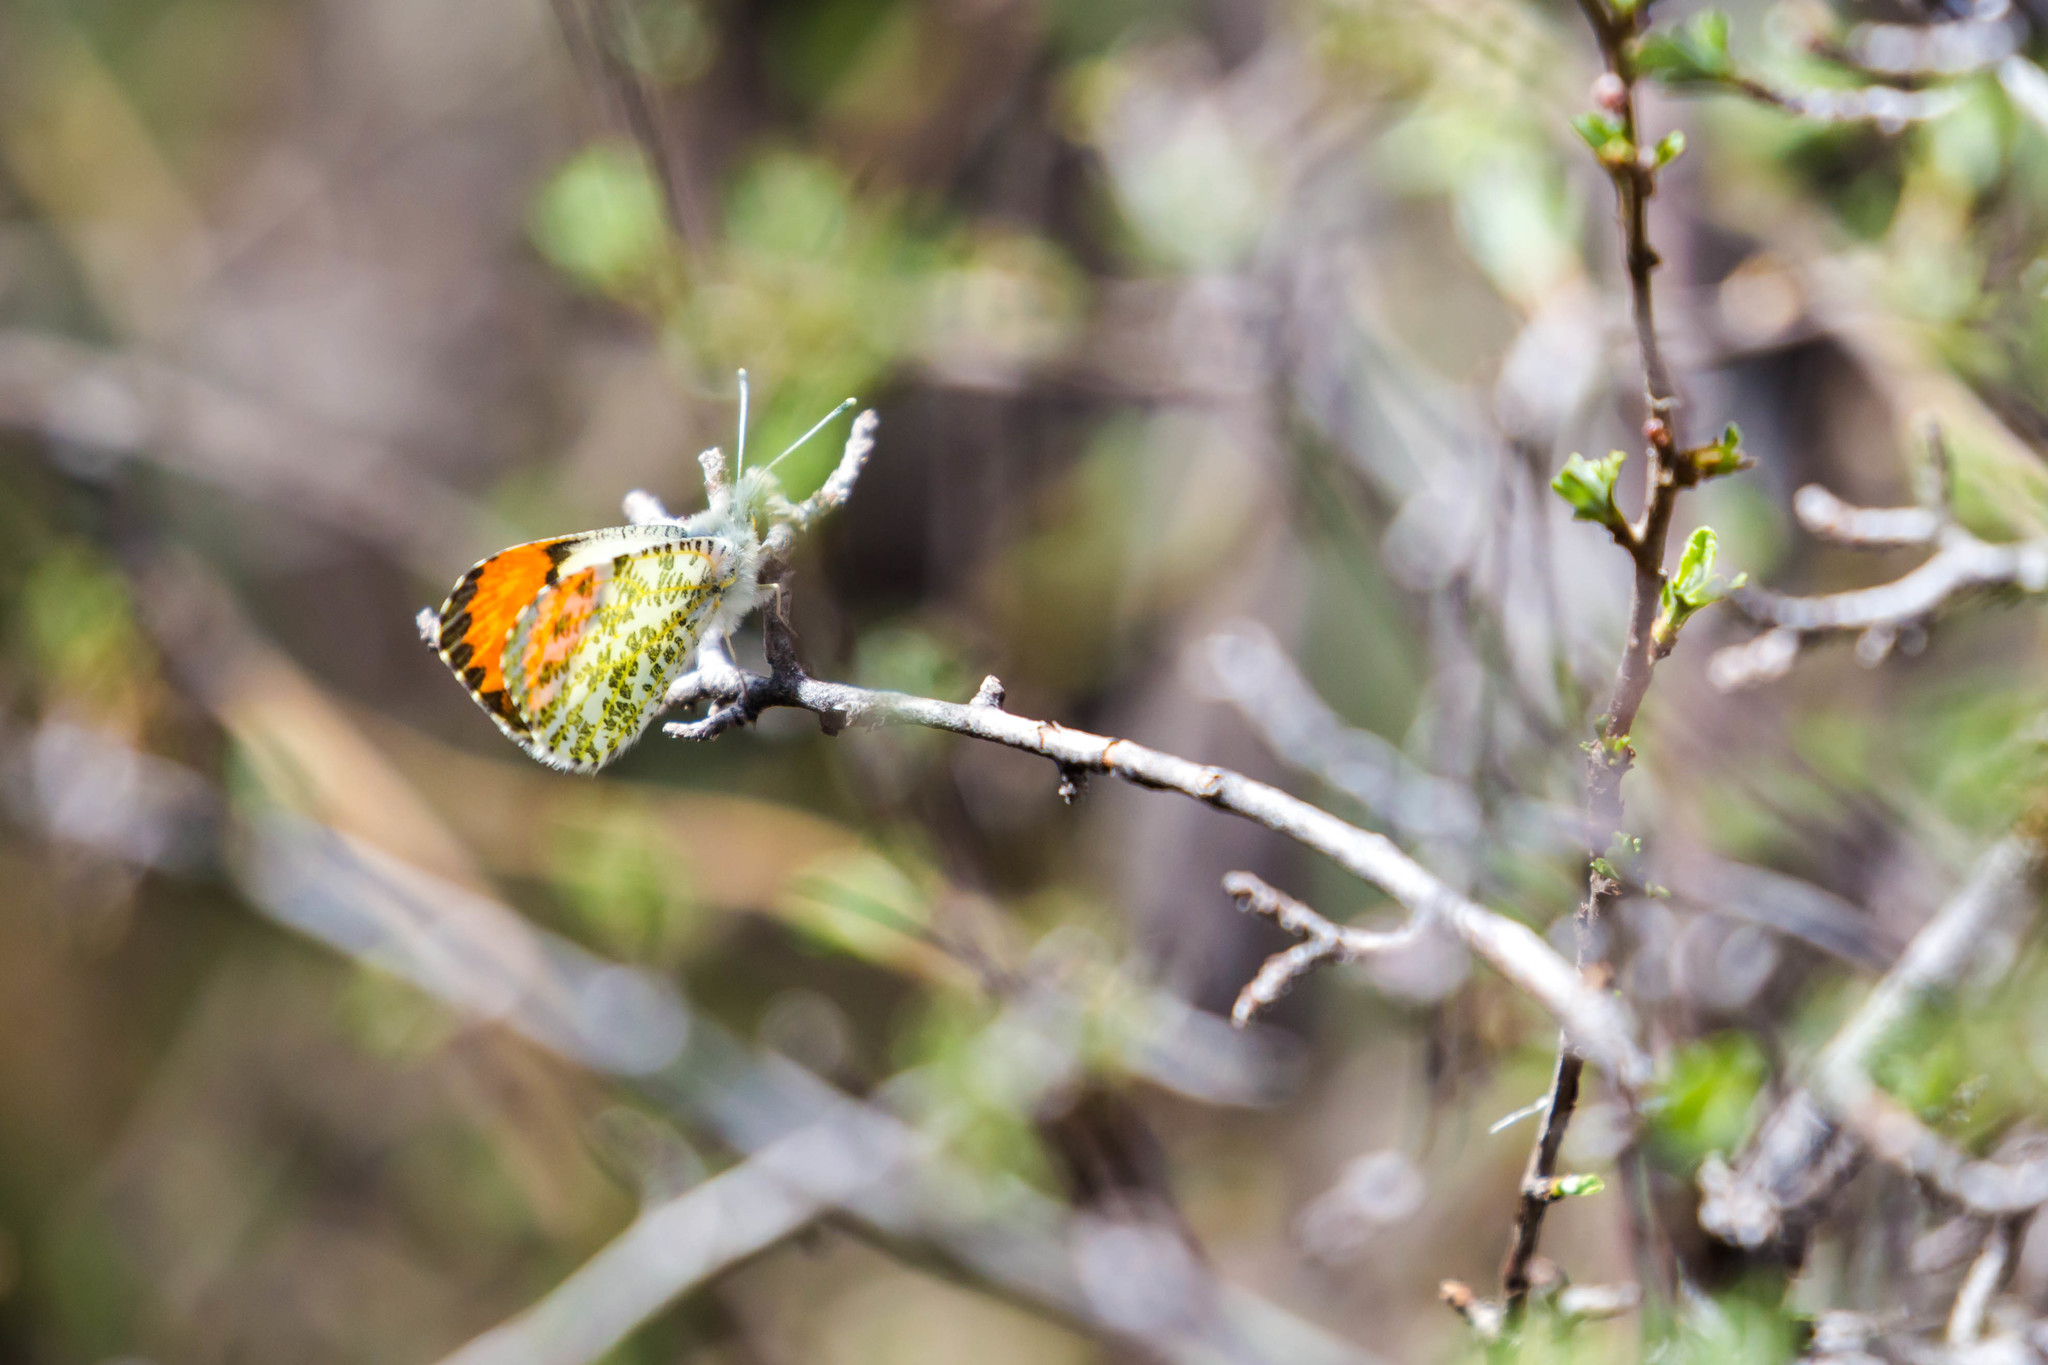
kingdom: Animalia
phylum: Arthropoda
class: Insecta
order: Lepidoptera
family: Pieridae
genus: Anthocharis
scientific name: Anthocharis sara
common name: Sara's orangetip
